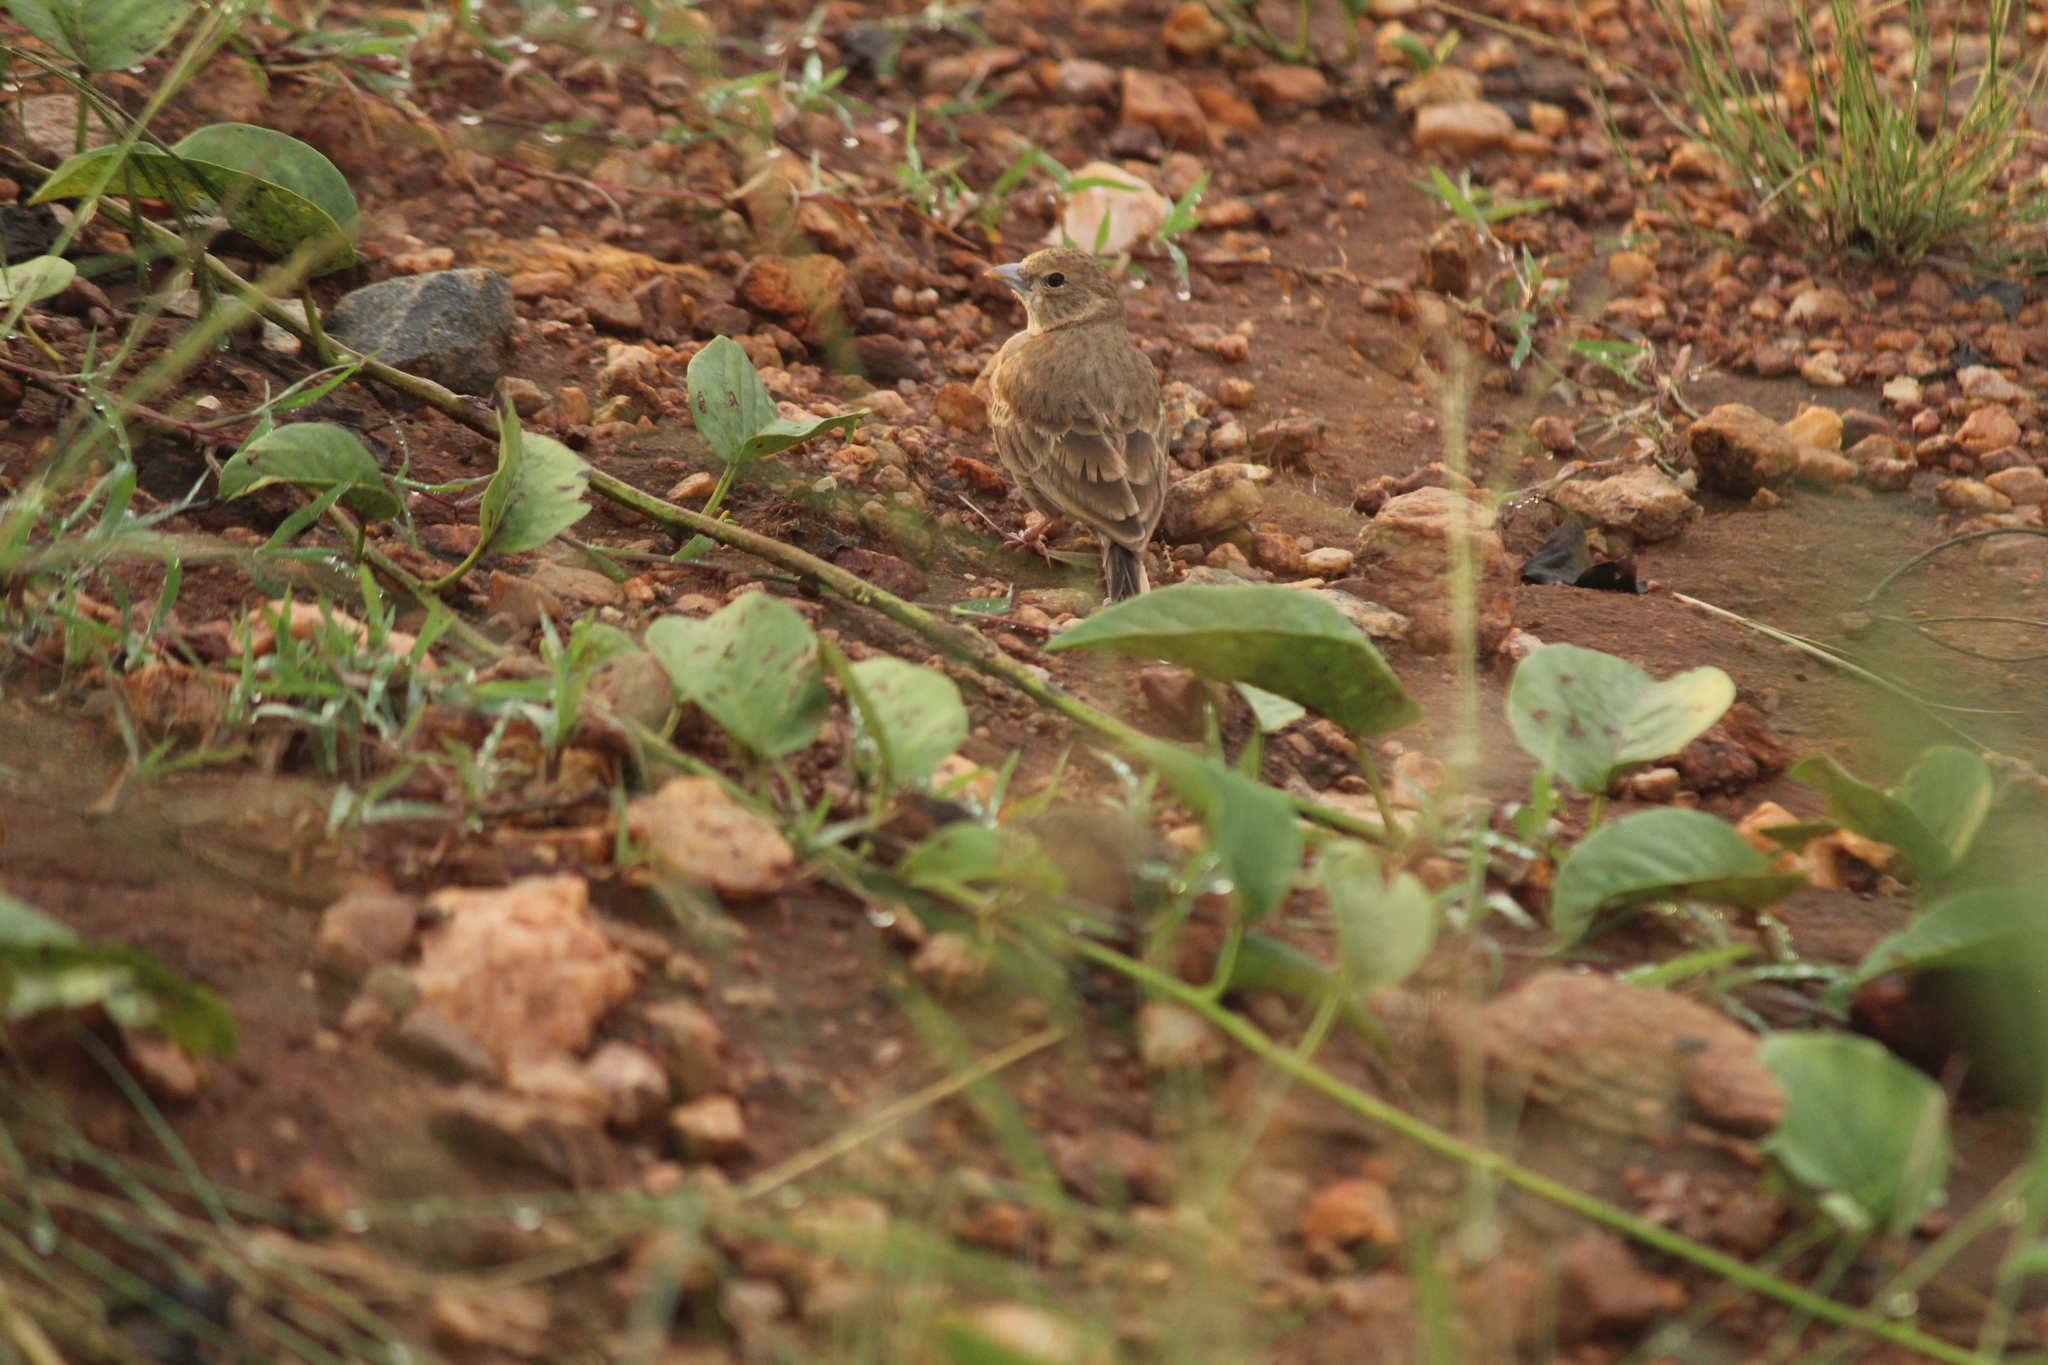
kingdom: Animalia
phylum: Chordata
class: Aves
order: Passeriformes
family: Alaudidae
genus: Eremopterix
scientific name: Eremopterix griseus
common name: Ashy-crowned sparrow-lark
